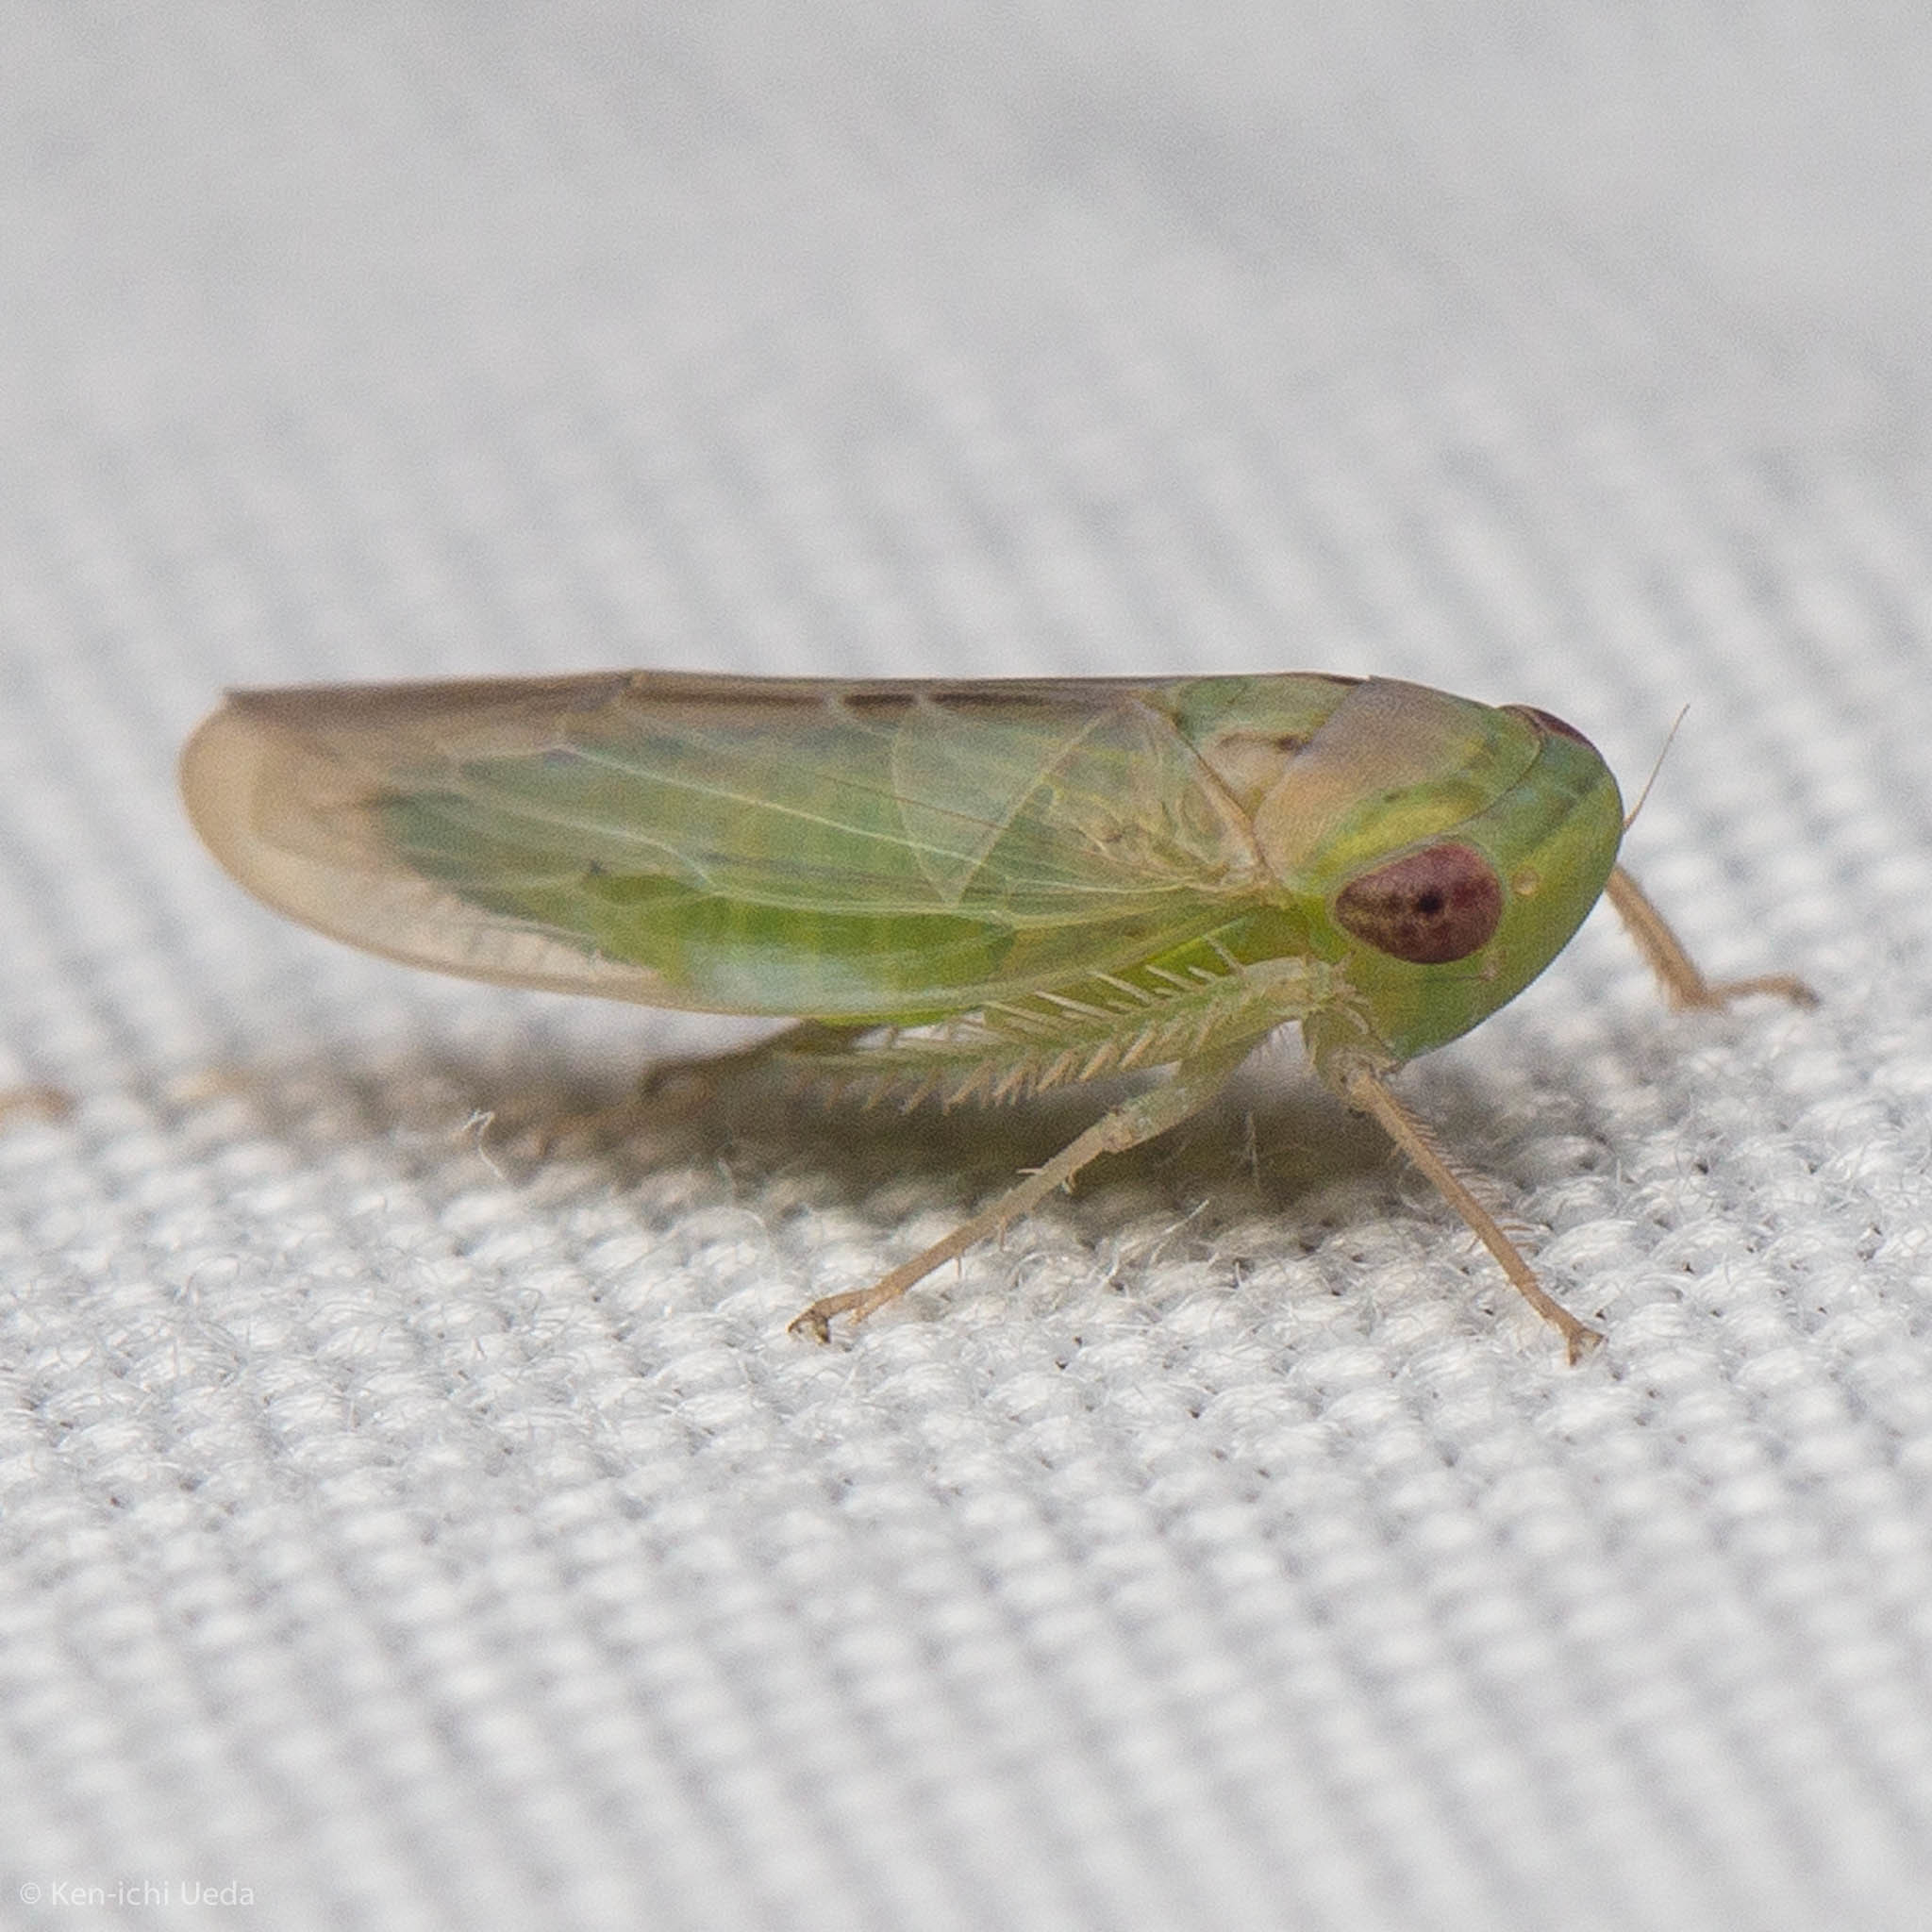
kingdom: Animalia
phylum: Arthropoda
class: Insecta
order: Hemiptera
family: Cicadellidae
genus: Chlorotettix
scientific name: Chlorotettix scutellatus
